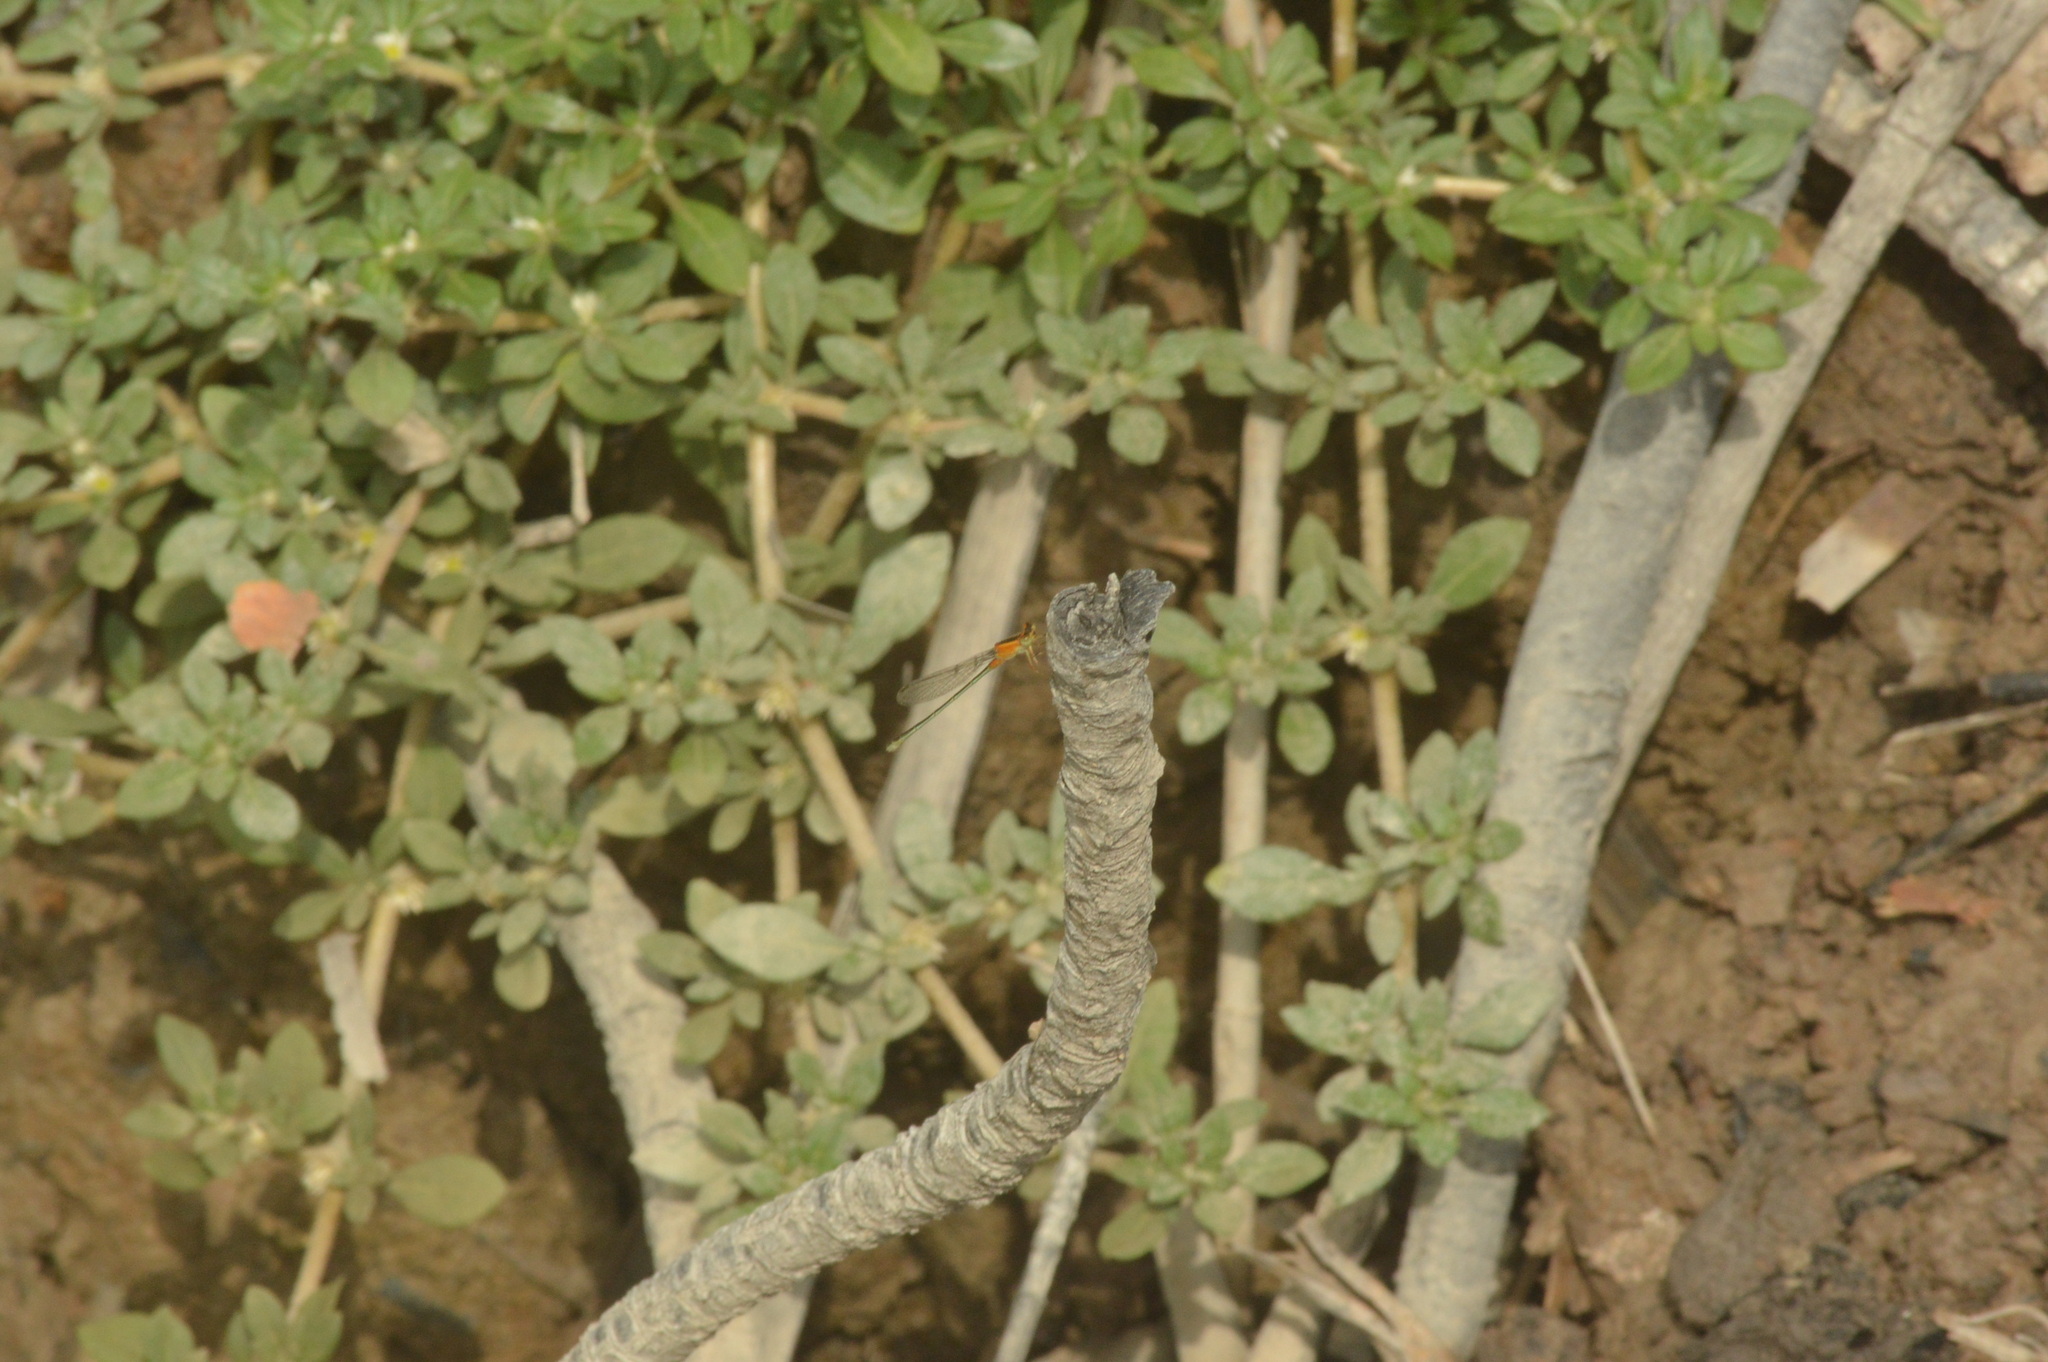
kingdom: Animalia
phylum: Arthropoda
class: Insecta
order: Odonata
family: Coenagrionidae
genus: Ischnura
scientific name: Ischnura senegalensis
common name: Tropical bluetail
